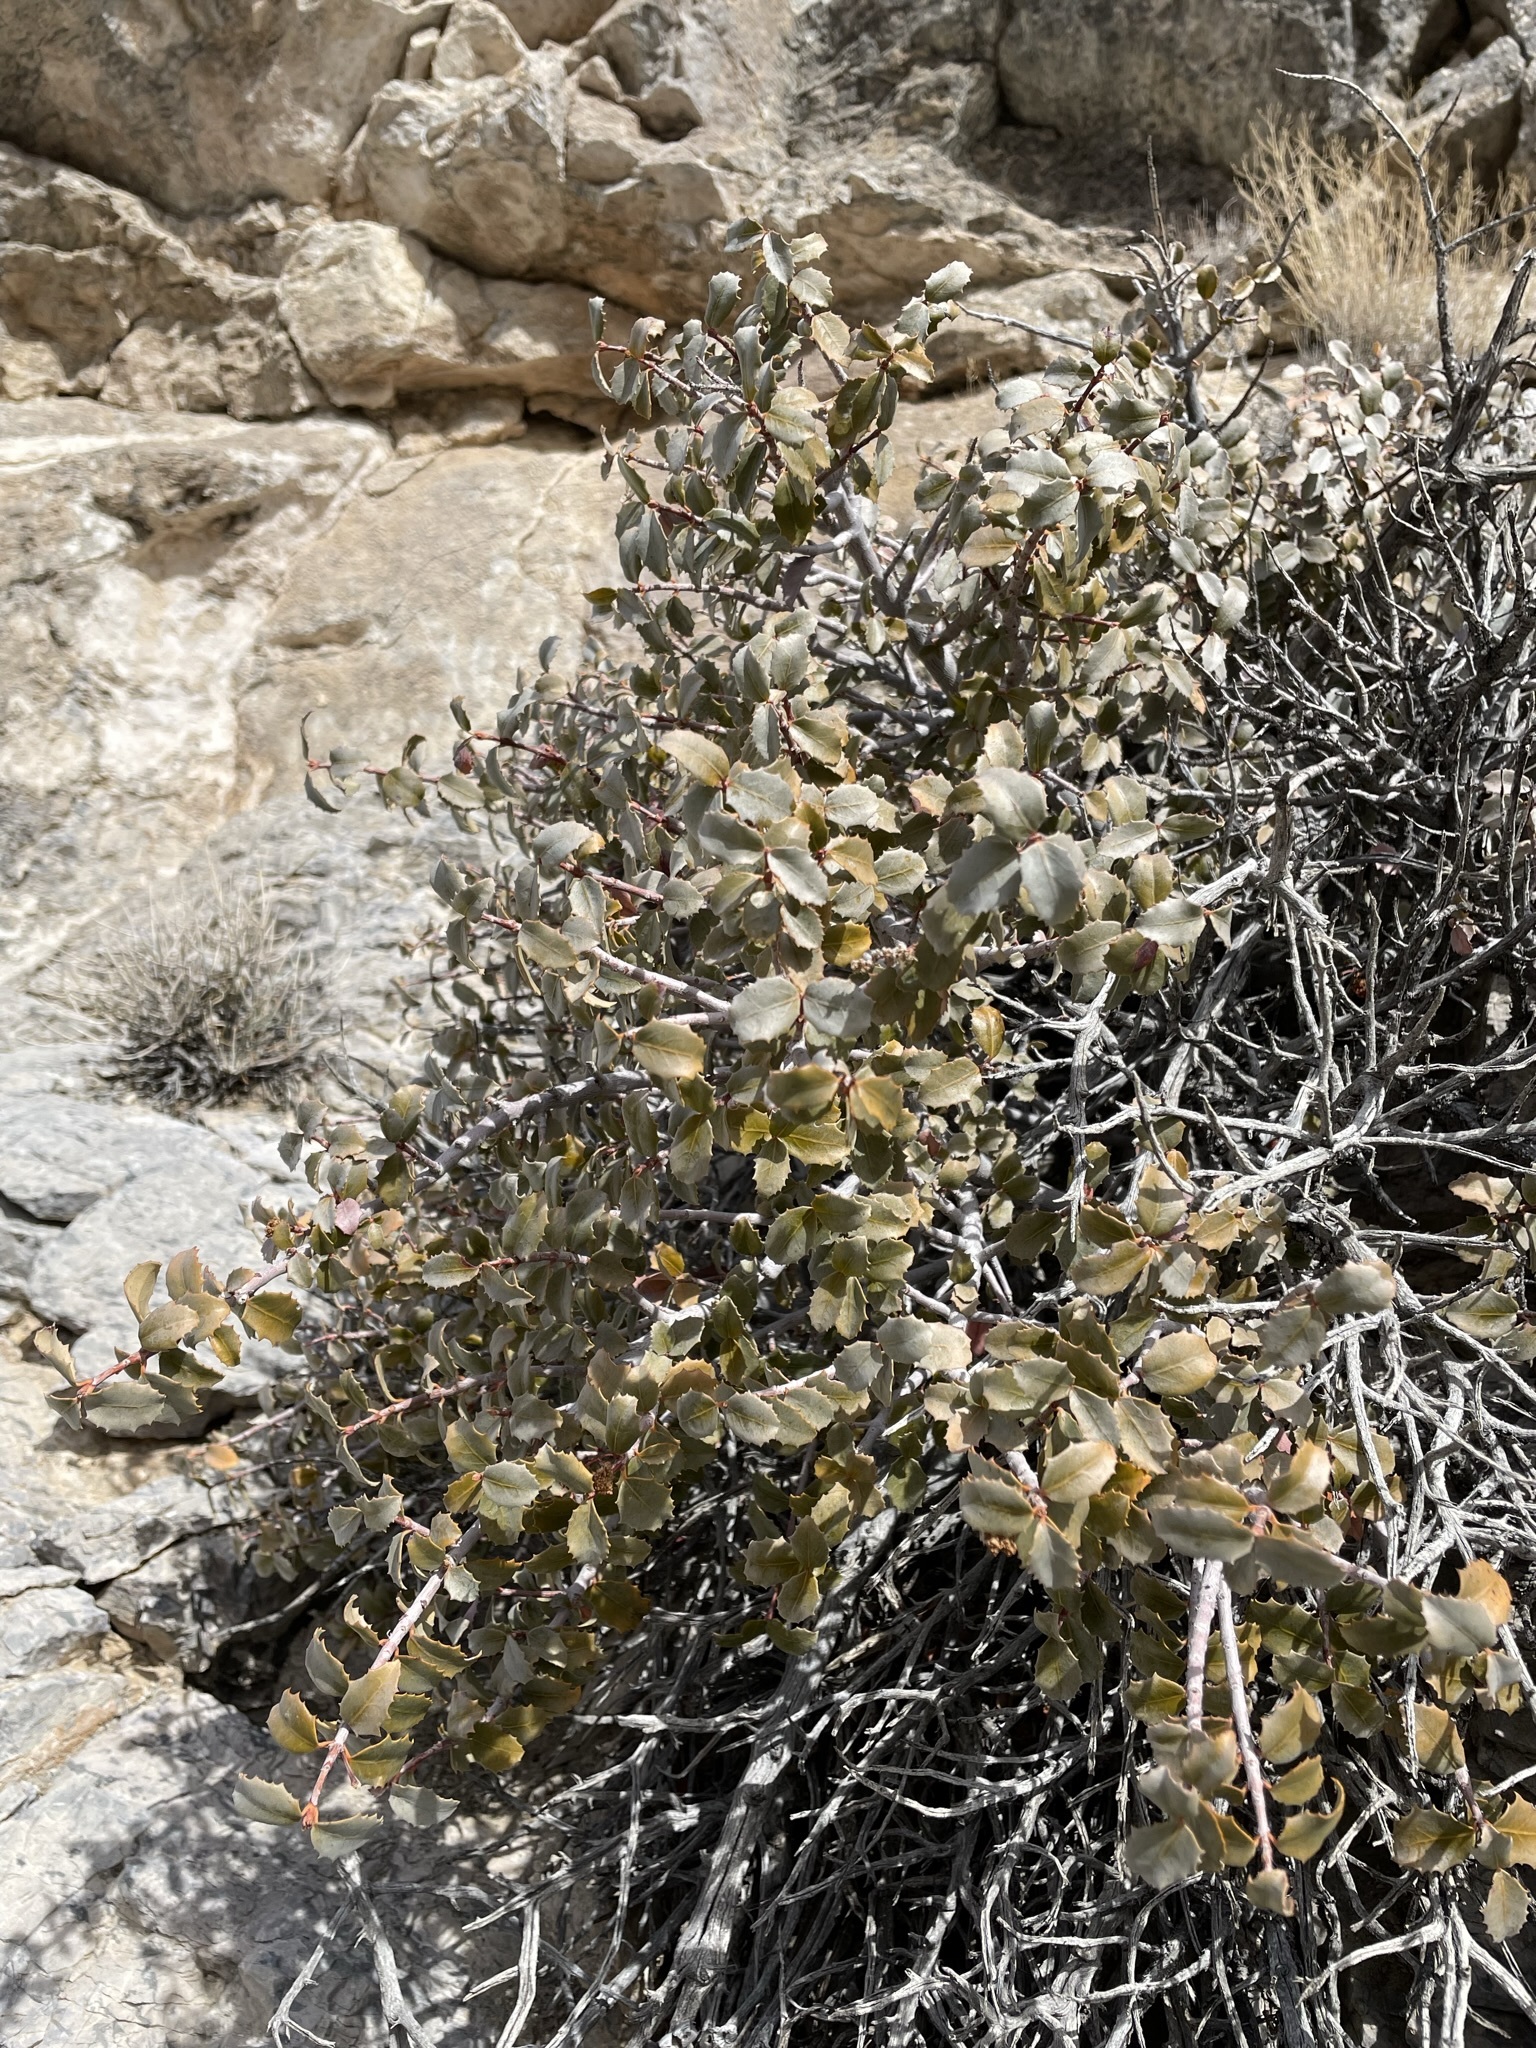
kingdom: Plantae
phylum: Tracheophyta
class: Magnoliopsida
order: Malpighiales
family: Picrodendraceae
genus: Tetracoccus
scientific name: Tetracoccus ilicifolius
